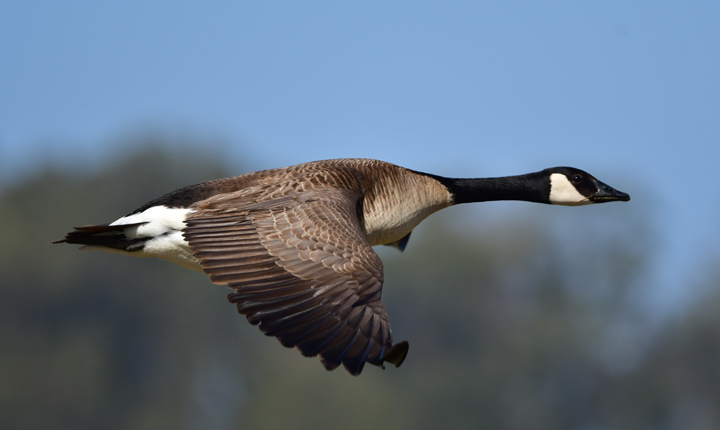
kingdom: Animalia
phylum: Chordata
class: Aves
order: Anseriformes
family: Anatidae
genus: Branta
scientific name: Branta canadensis
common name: Canada goose
